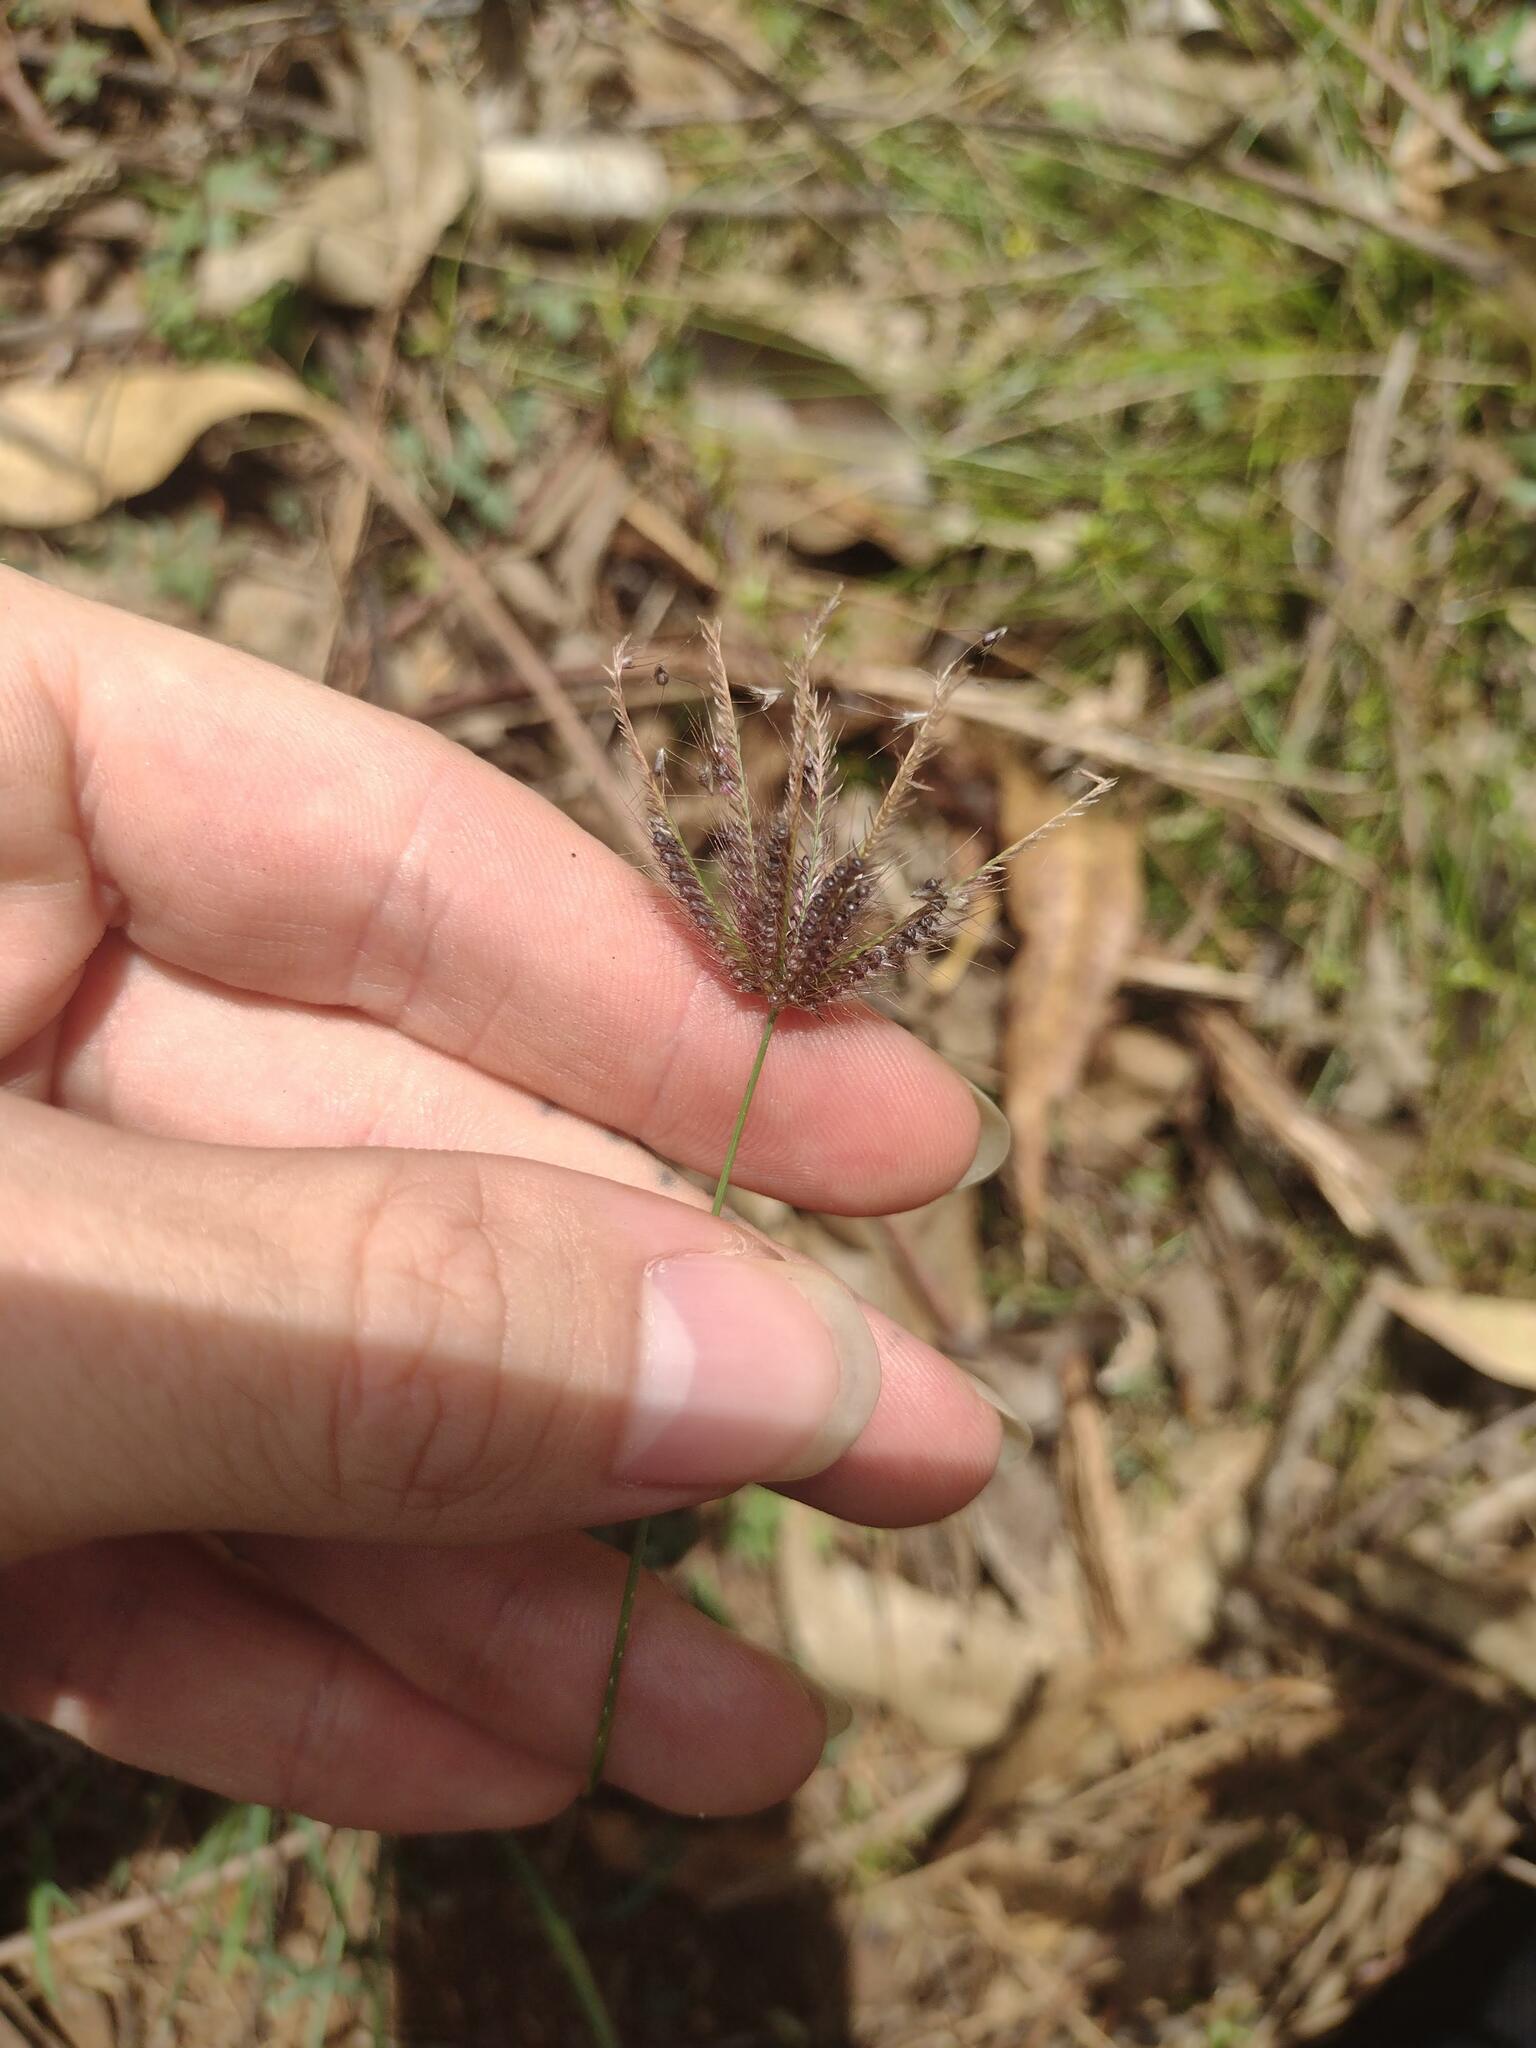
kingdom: Plantae
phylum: Tracheophyta
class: Liliopsida
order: Poales
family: Poaceae
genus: Chloris
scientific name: Chloris barbata
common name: Swollen fingergrass
